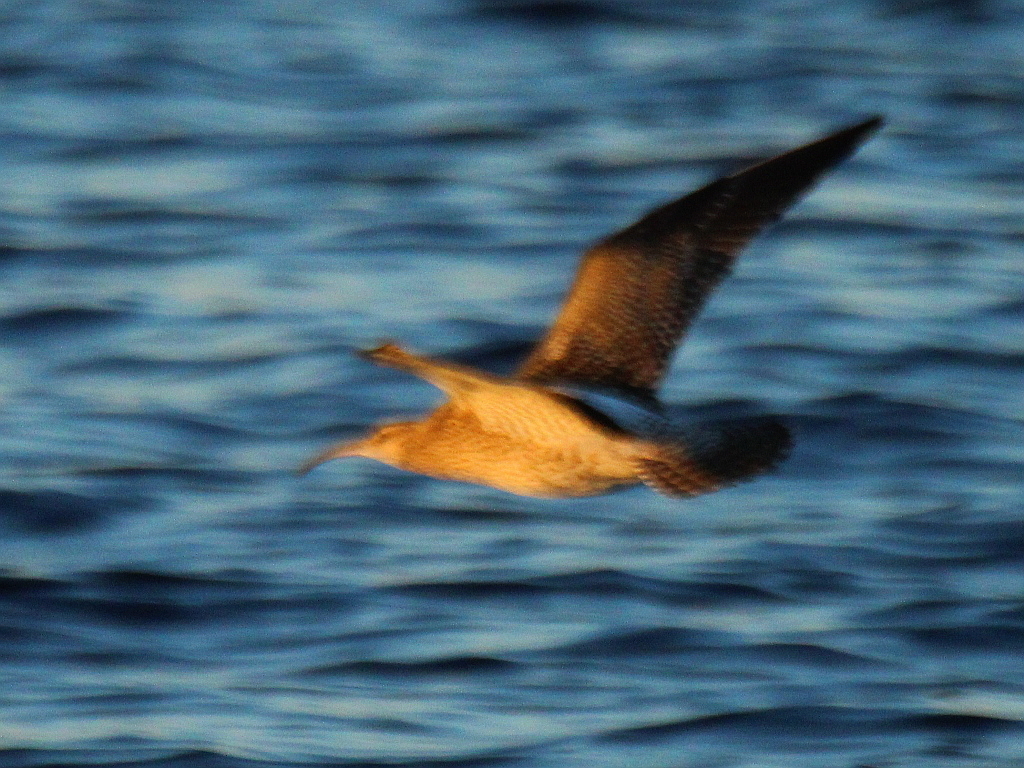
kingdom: Animalia
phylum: Chordata
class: Aves
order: Charadriiformes
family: Scolopacidae
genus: Numenius
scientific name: Numenius phaeopus
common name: Whimbrel
